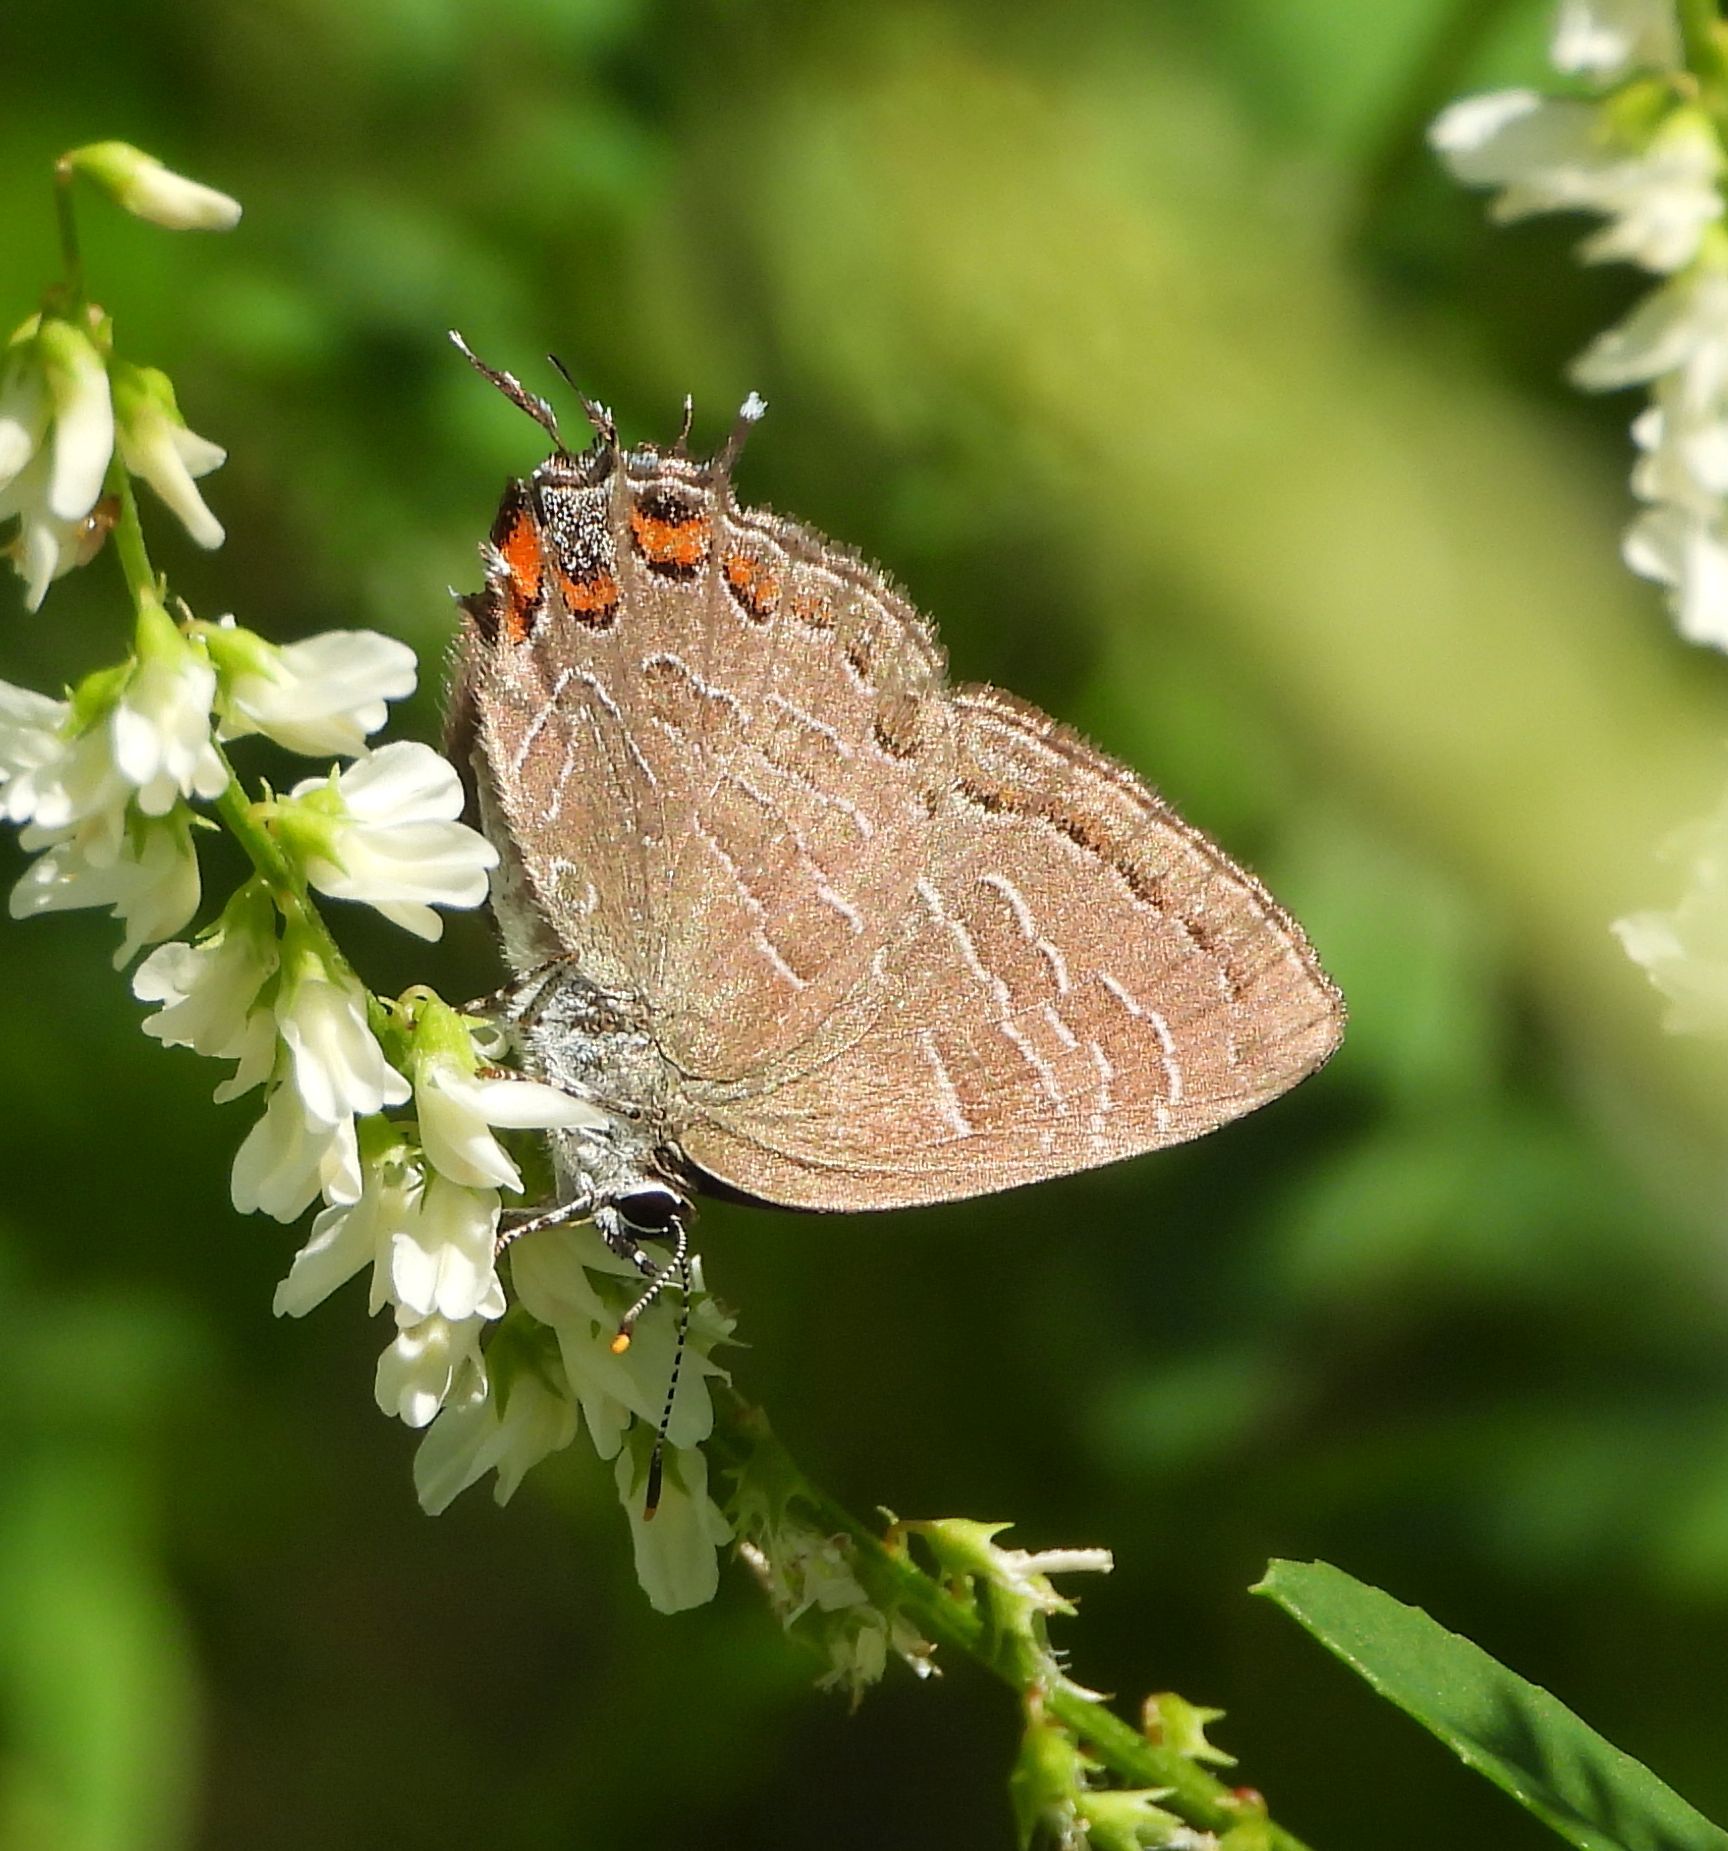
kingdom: Animalia
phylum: Arthropoda
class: Insecta
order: Lepidoptera
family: Lycaenidae
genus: Satyrium
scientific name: Satyrium liparops
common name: Striped hairstreak
